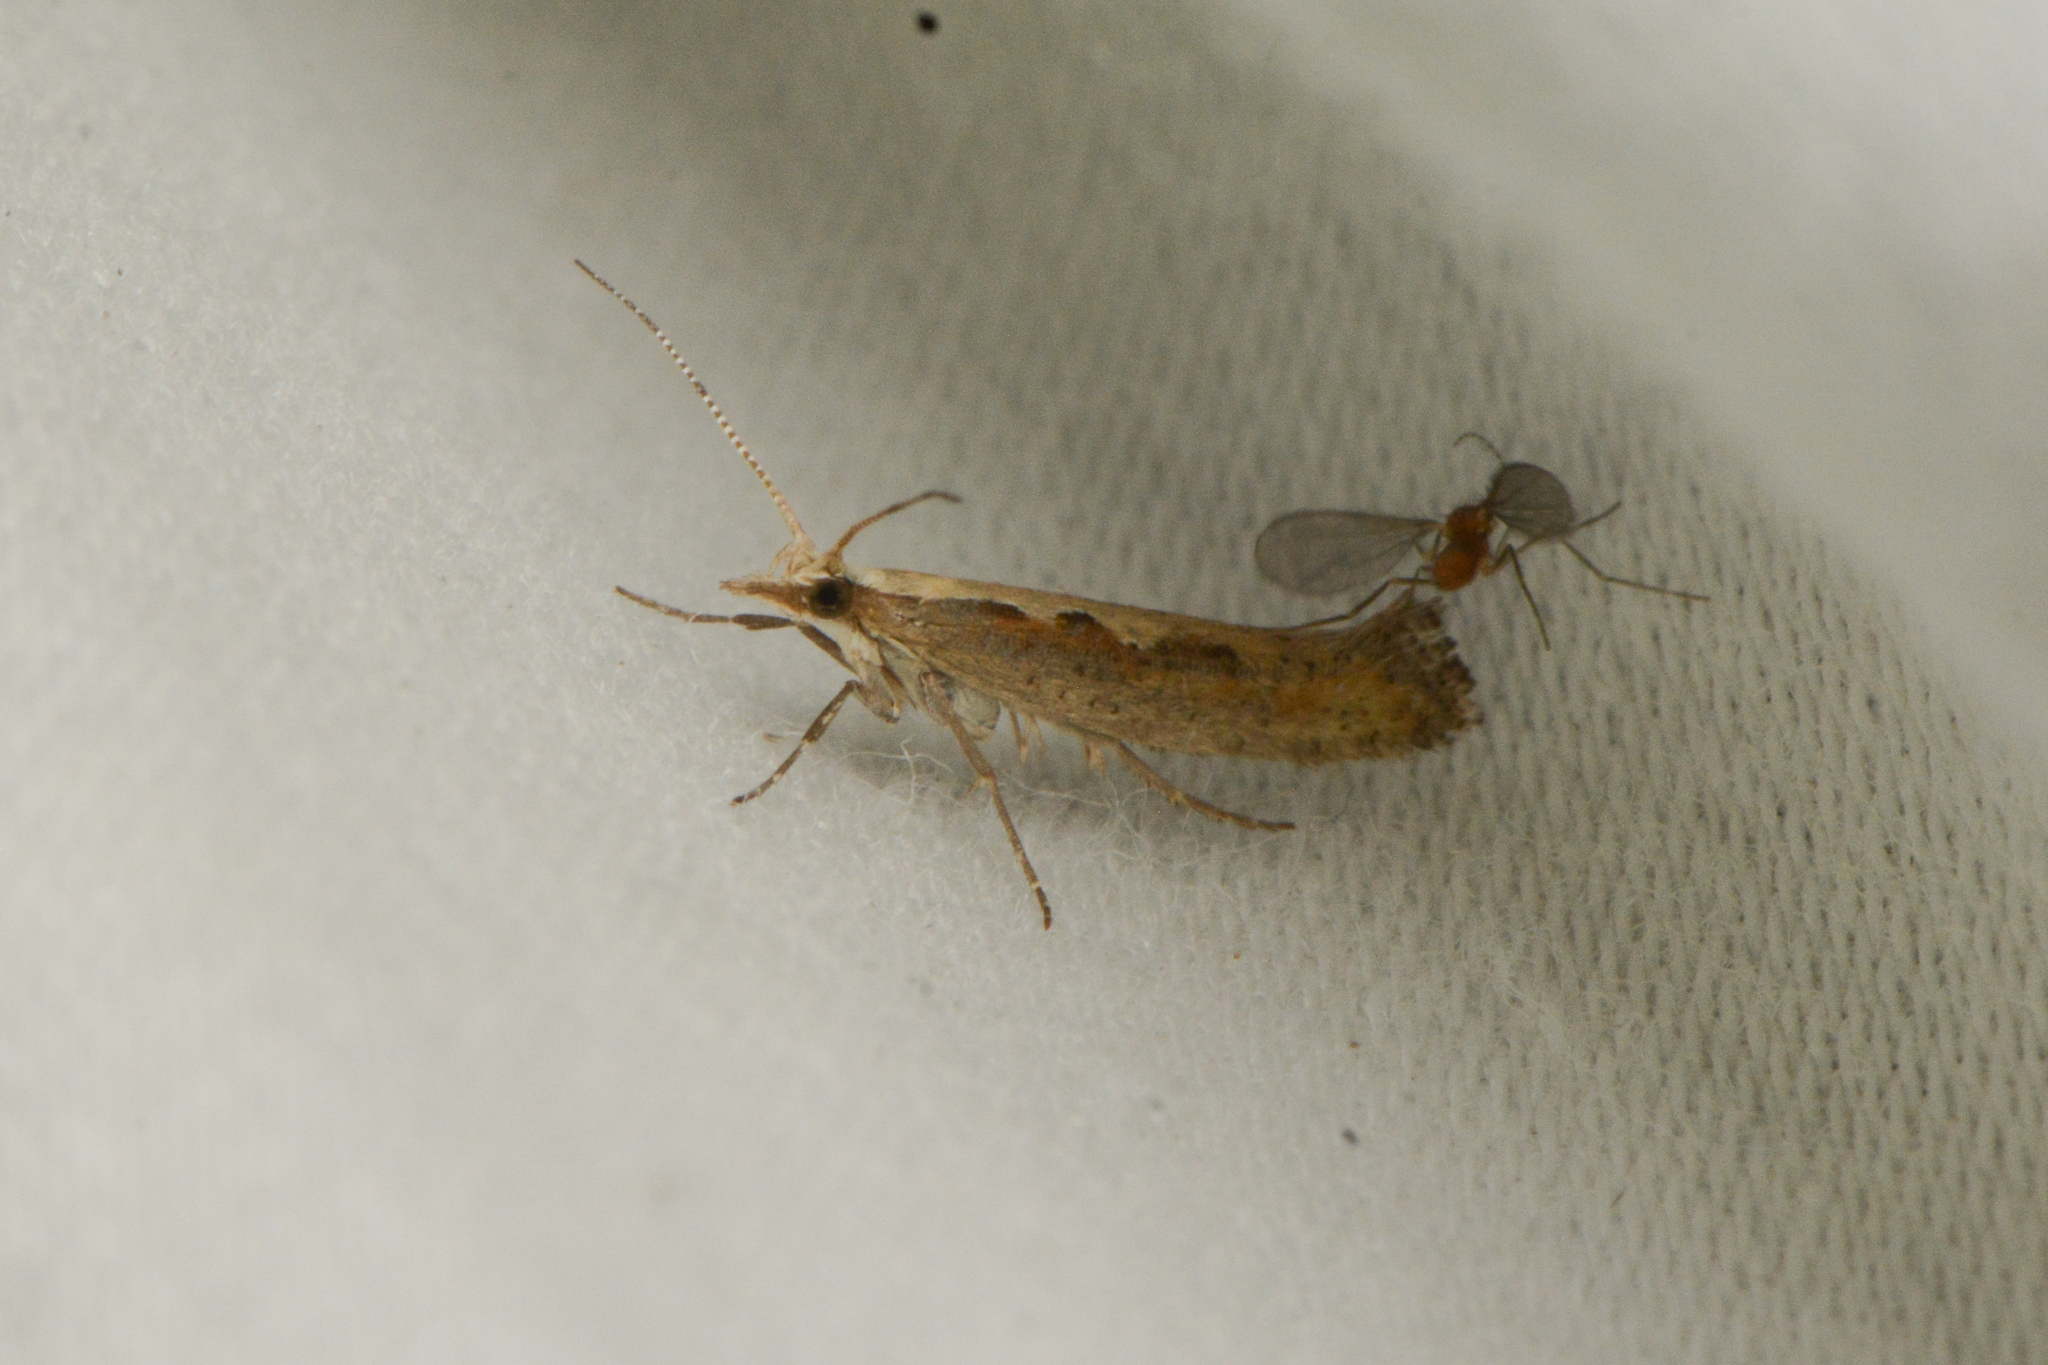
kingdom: Animalia
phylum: Arthropoda
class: Insecta
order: Lepidoptera
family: Plutellidae
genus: Plutella
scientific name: Plutella xylostella
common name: Diamond-back moth
